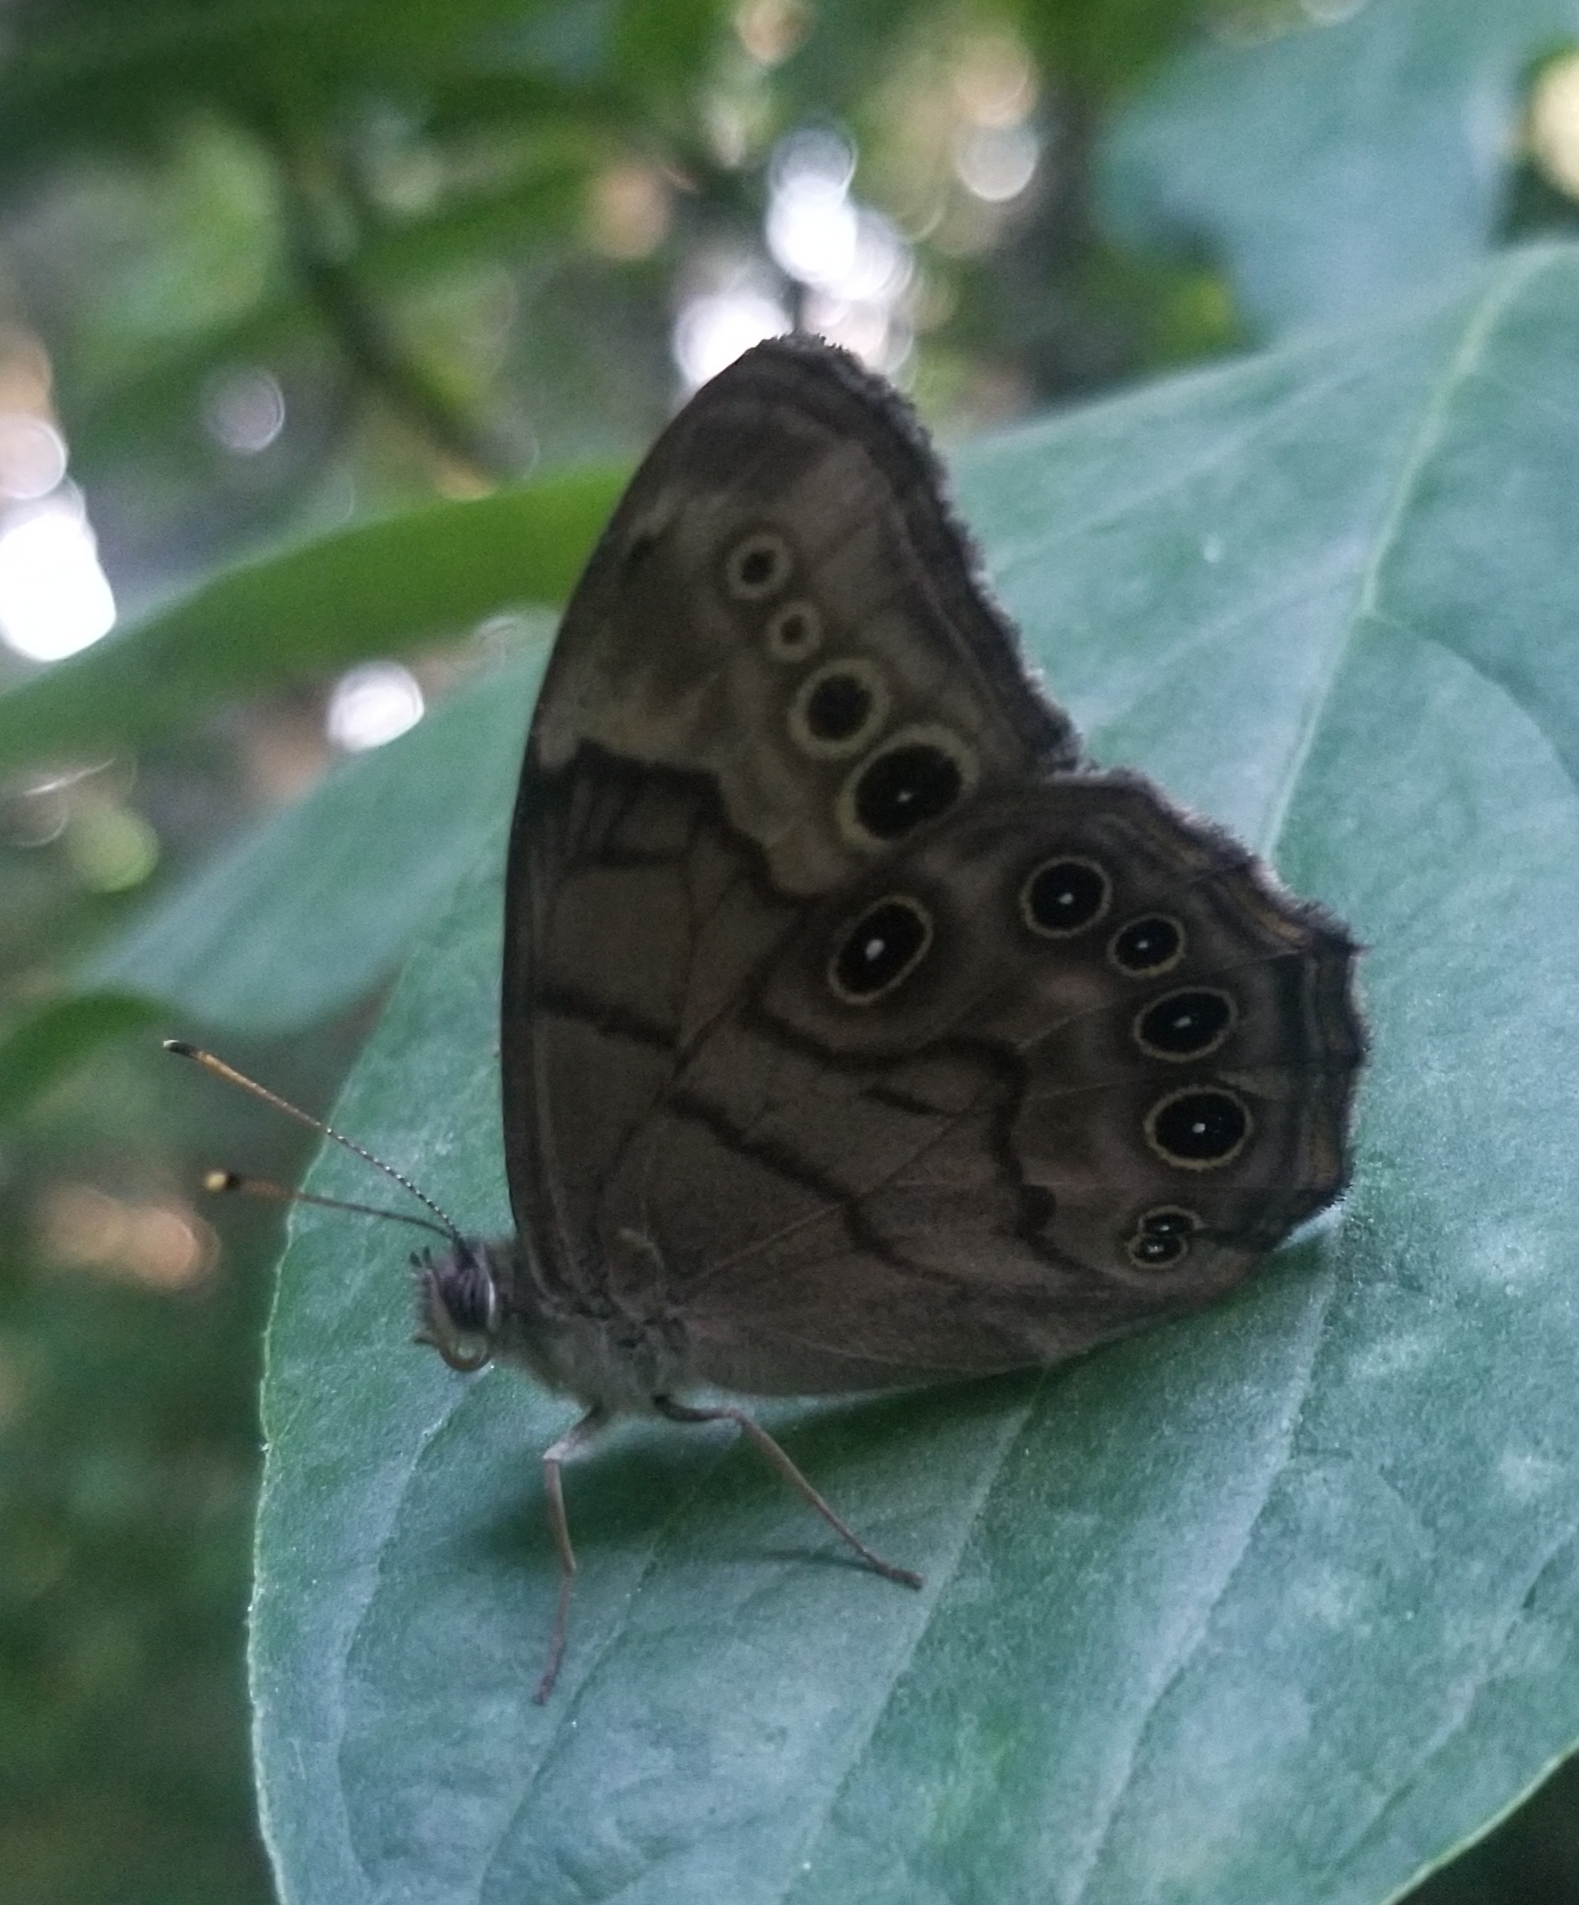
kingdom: Animalia
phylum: Arthropoda
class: Insecta
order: Lepidoptera
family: Nymphalidae
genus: Lethe
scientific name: Lethe anthedon
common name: Northern pearly-eye
